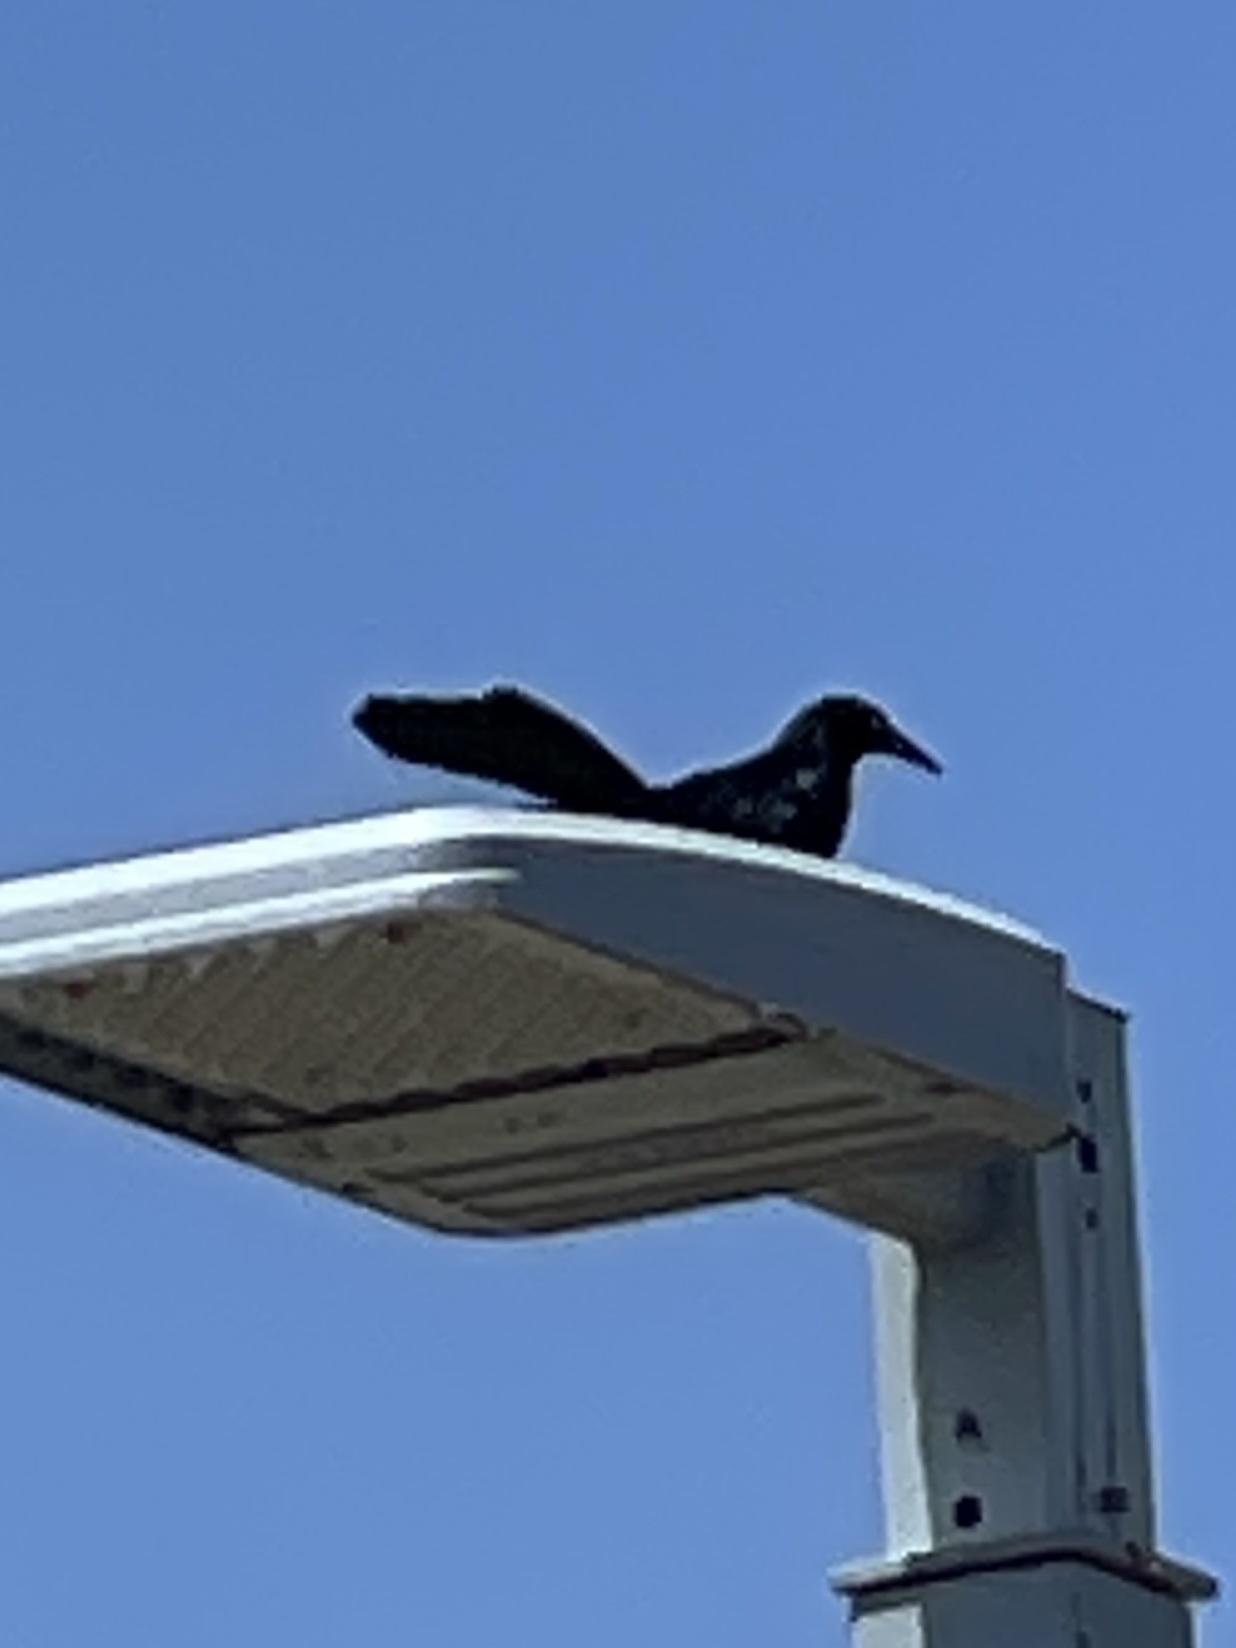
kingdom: Animalia
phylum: Chordata
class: Aves
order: Passeriformes
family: Icteridae
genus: Quiscalus
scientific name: Quiscalus mexicanus
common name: Great-tailed grackle
